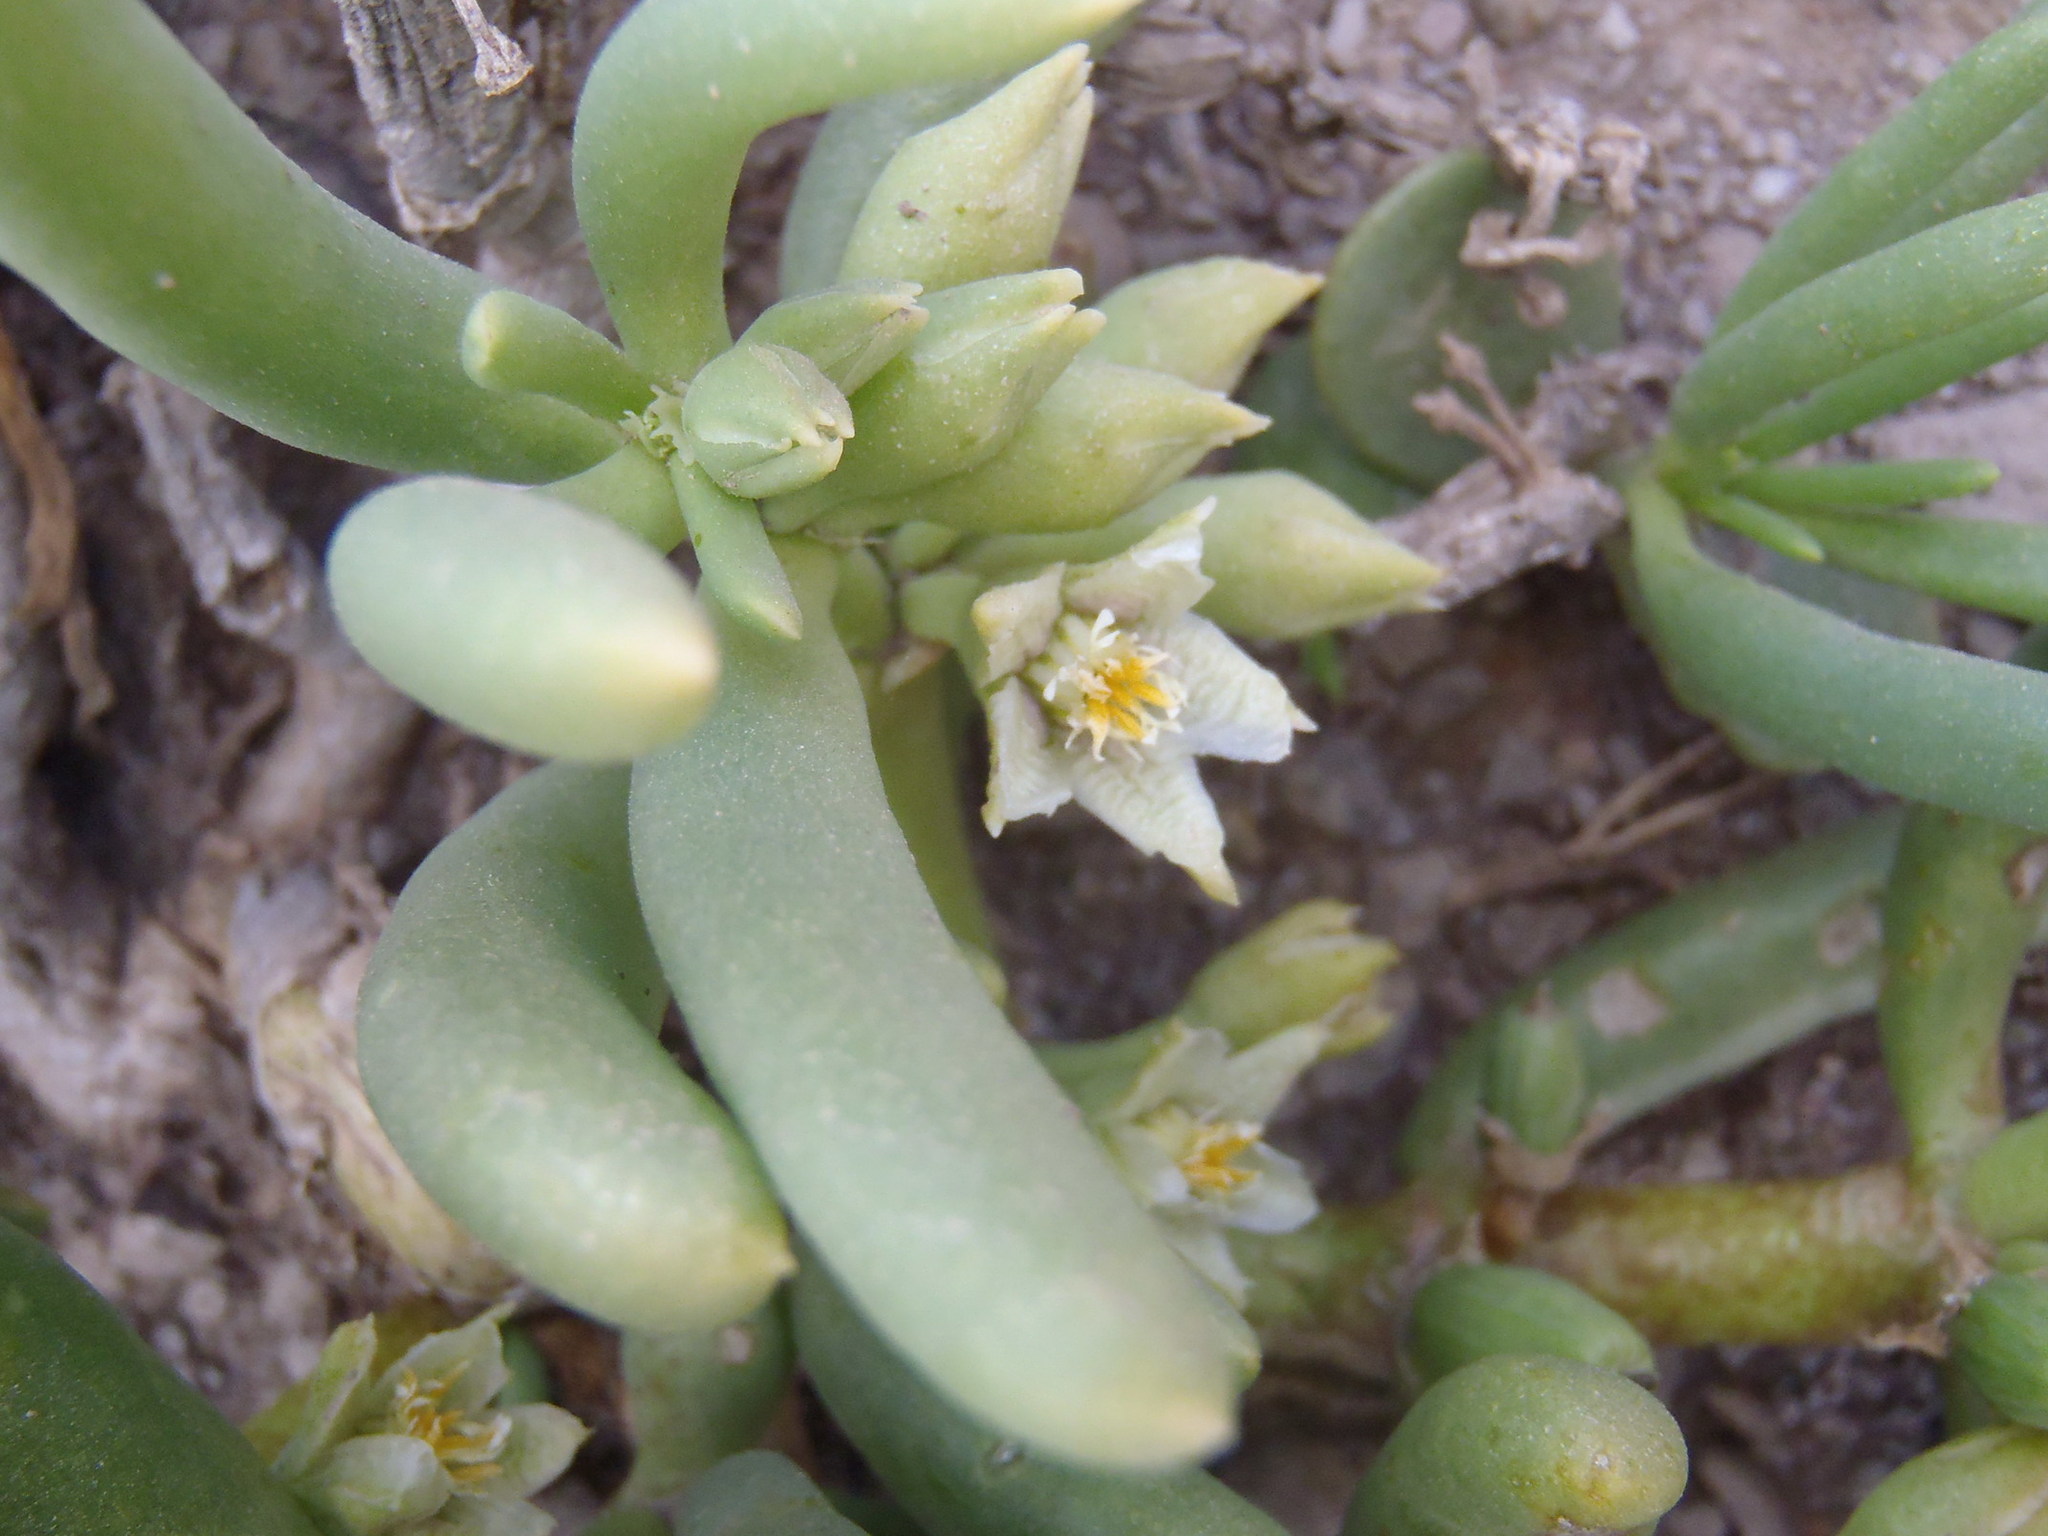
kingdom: Plantae
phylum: Tracheophyta
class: Magnoliopsida
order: Zygophyllales
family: Zygophyllaceae
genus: Augea
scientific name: Augea capensis
